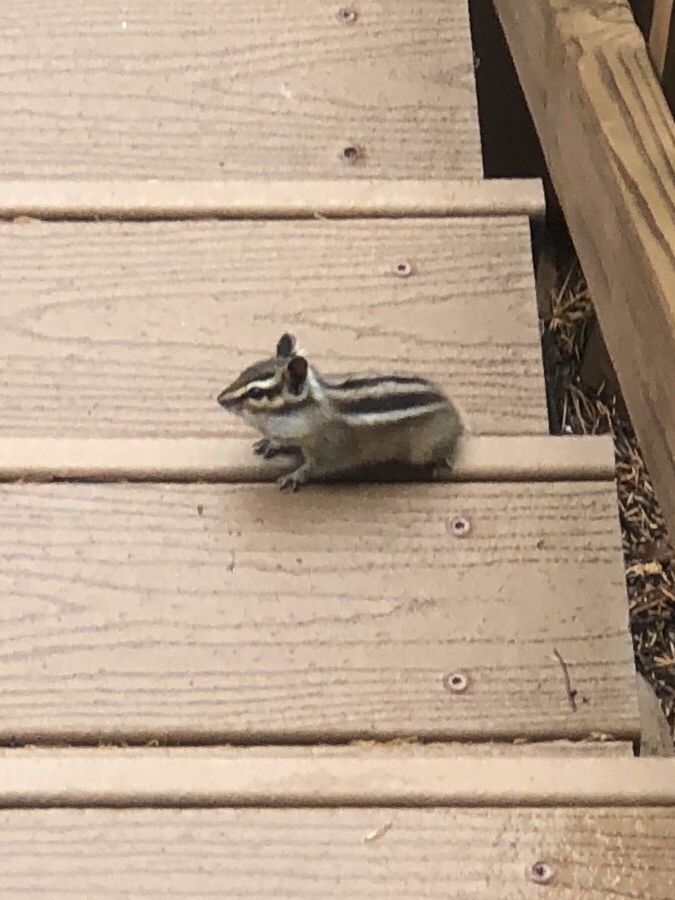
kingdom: Animalia
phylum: Chordata
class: Mammalia
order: Rodentia
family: Sciuridae
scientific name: Sciuridae
